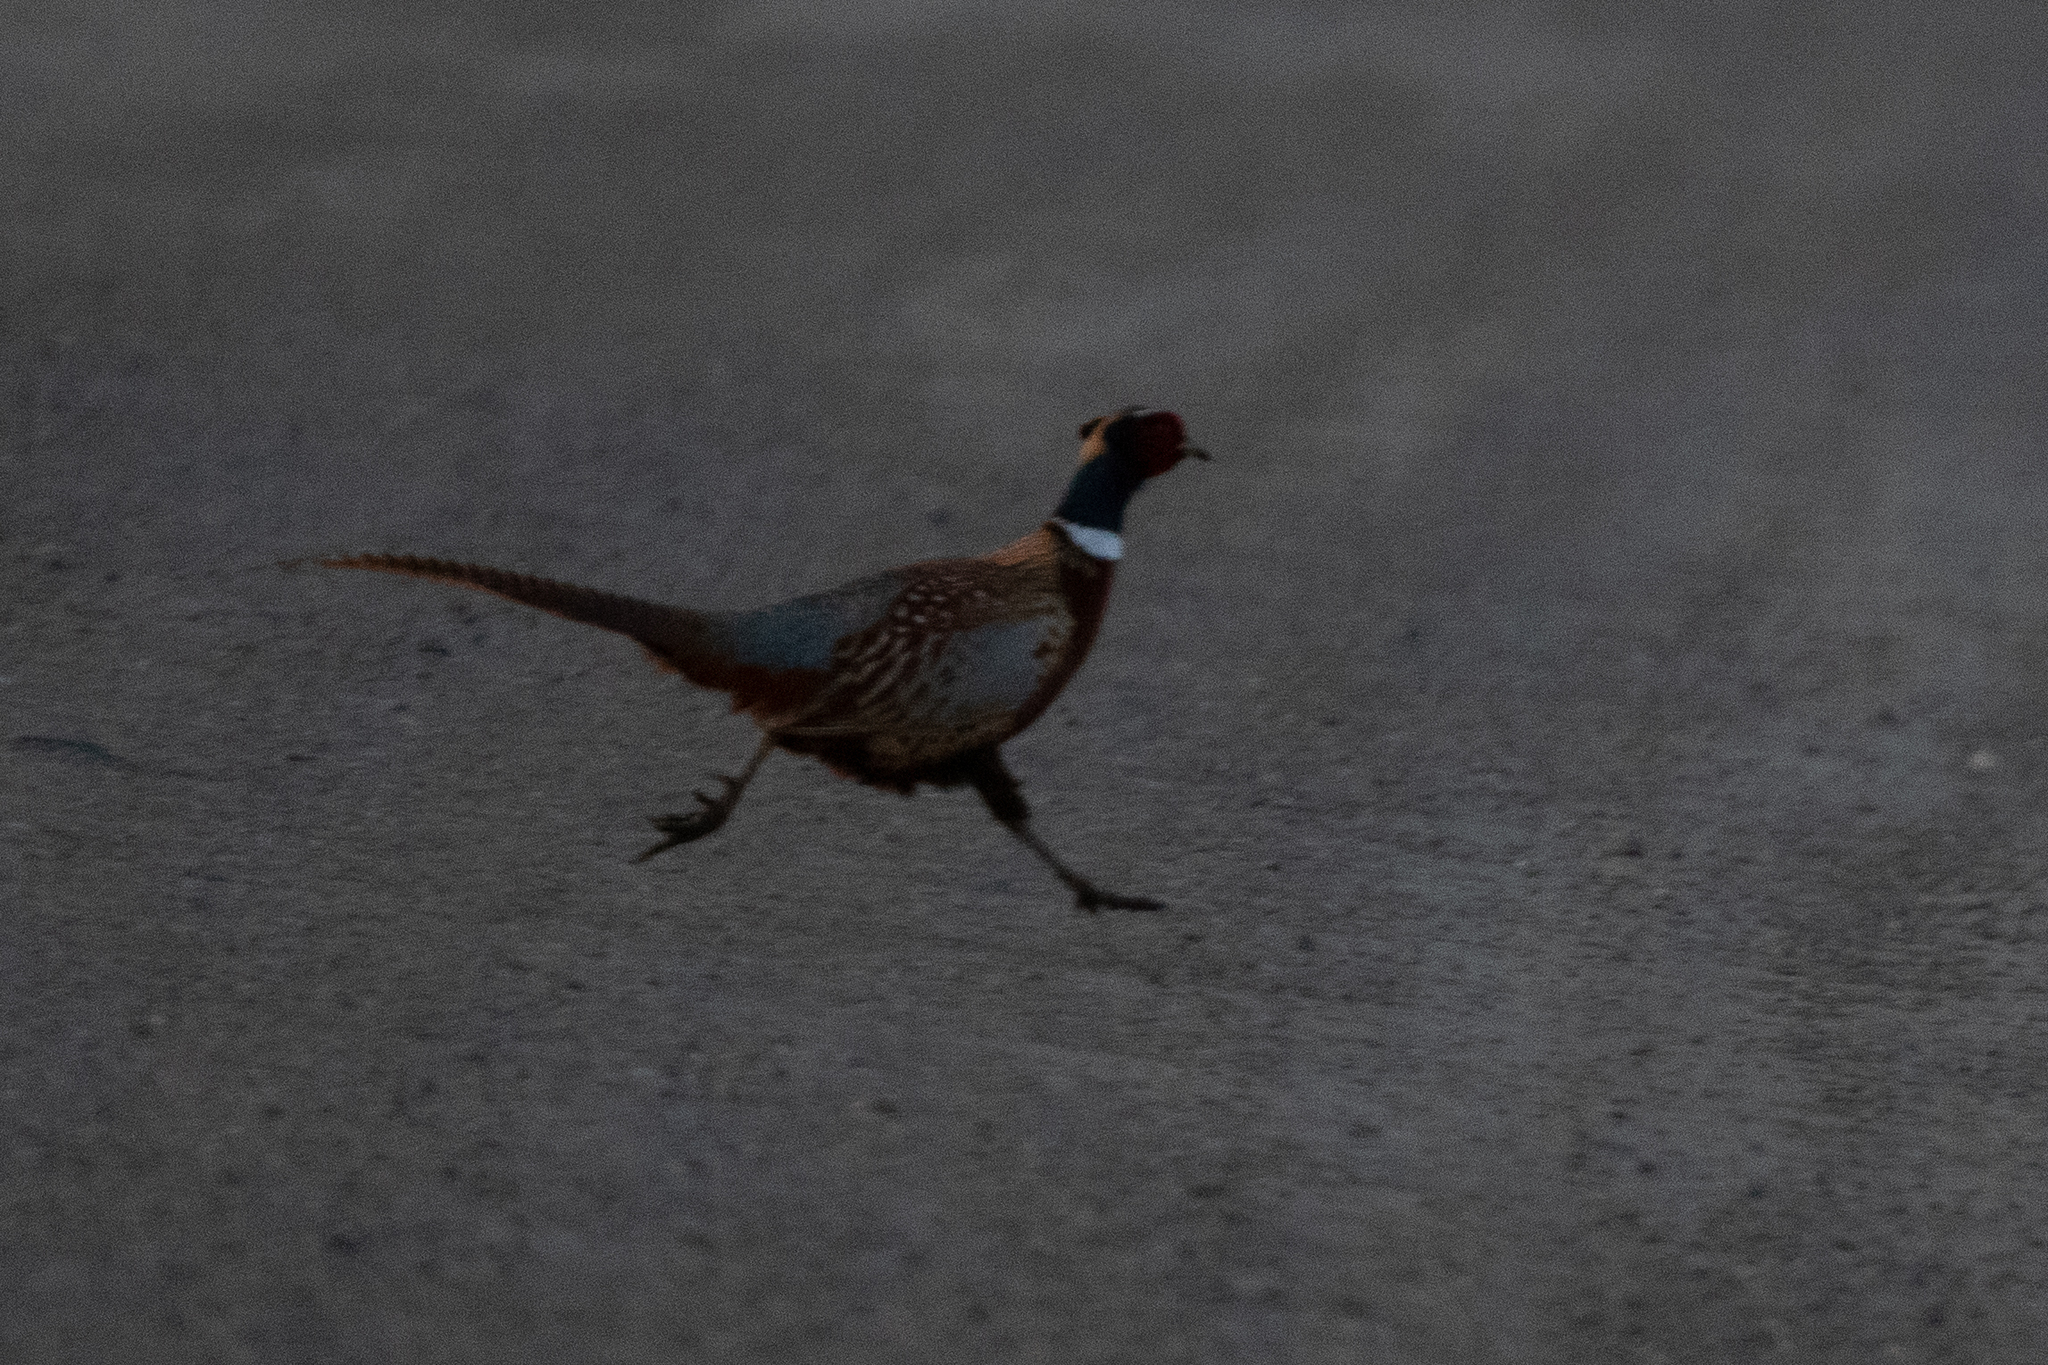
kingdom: Animalia
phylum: Chordata
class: Aves
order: Galliformes
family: Phasianidae
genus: Phasianus
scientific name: Phasianus colchicus
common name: Common pheasant
